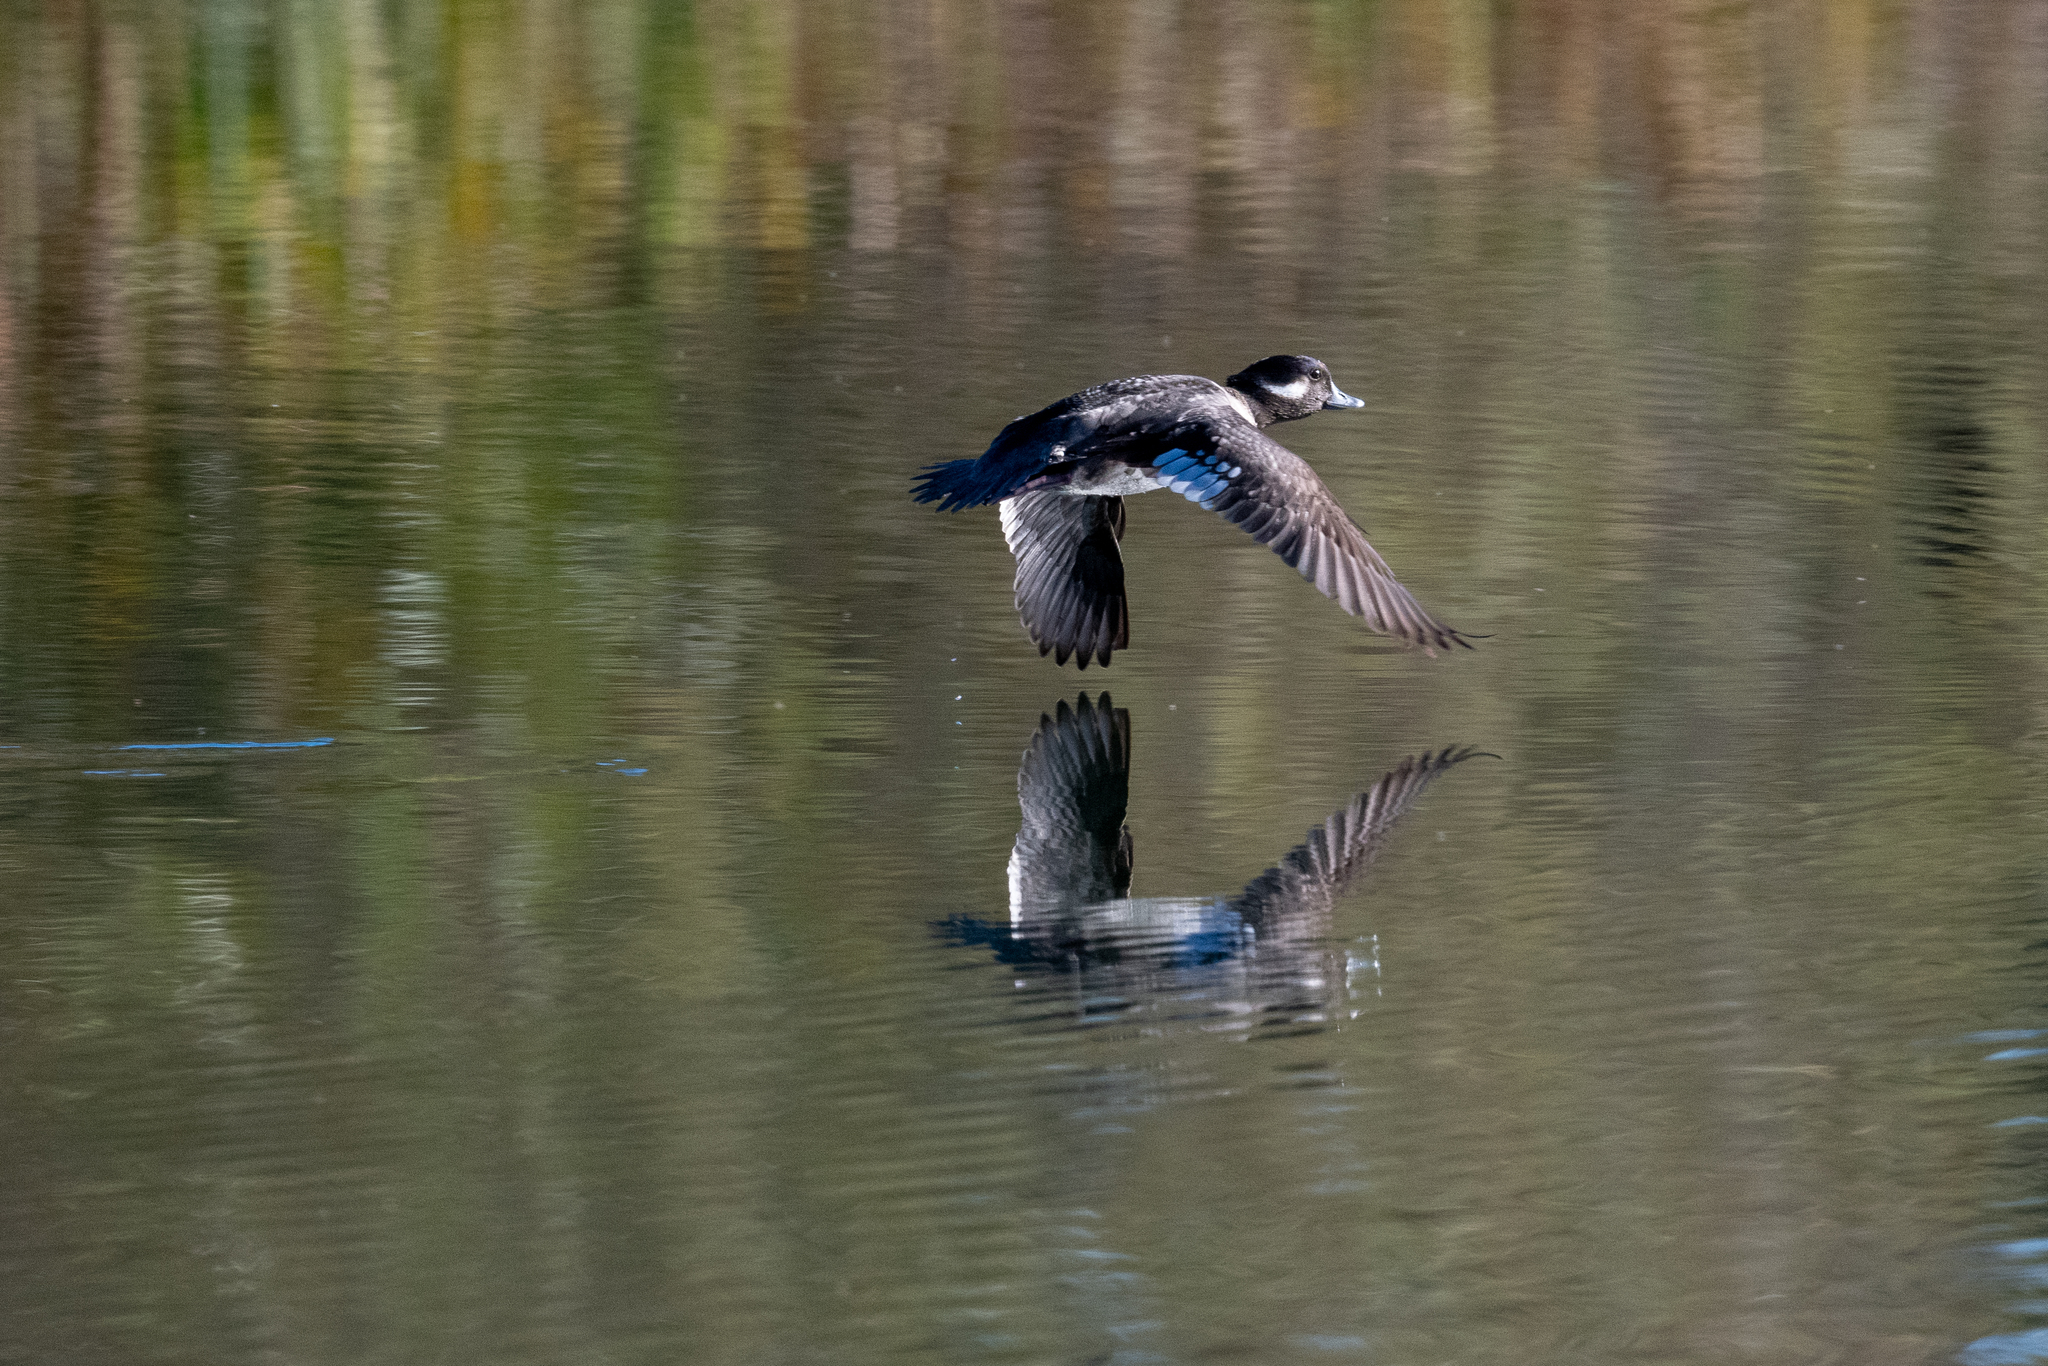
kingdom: Animalia
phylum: Chordata
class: Aves
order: Anseriformes
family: Anatidae
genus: Bucephala
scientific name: Bucephala albeola
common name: Bufflehead
